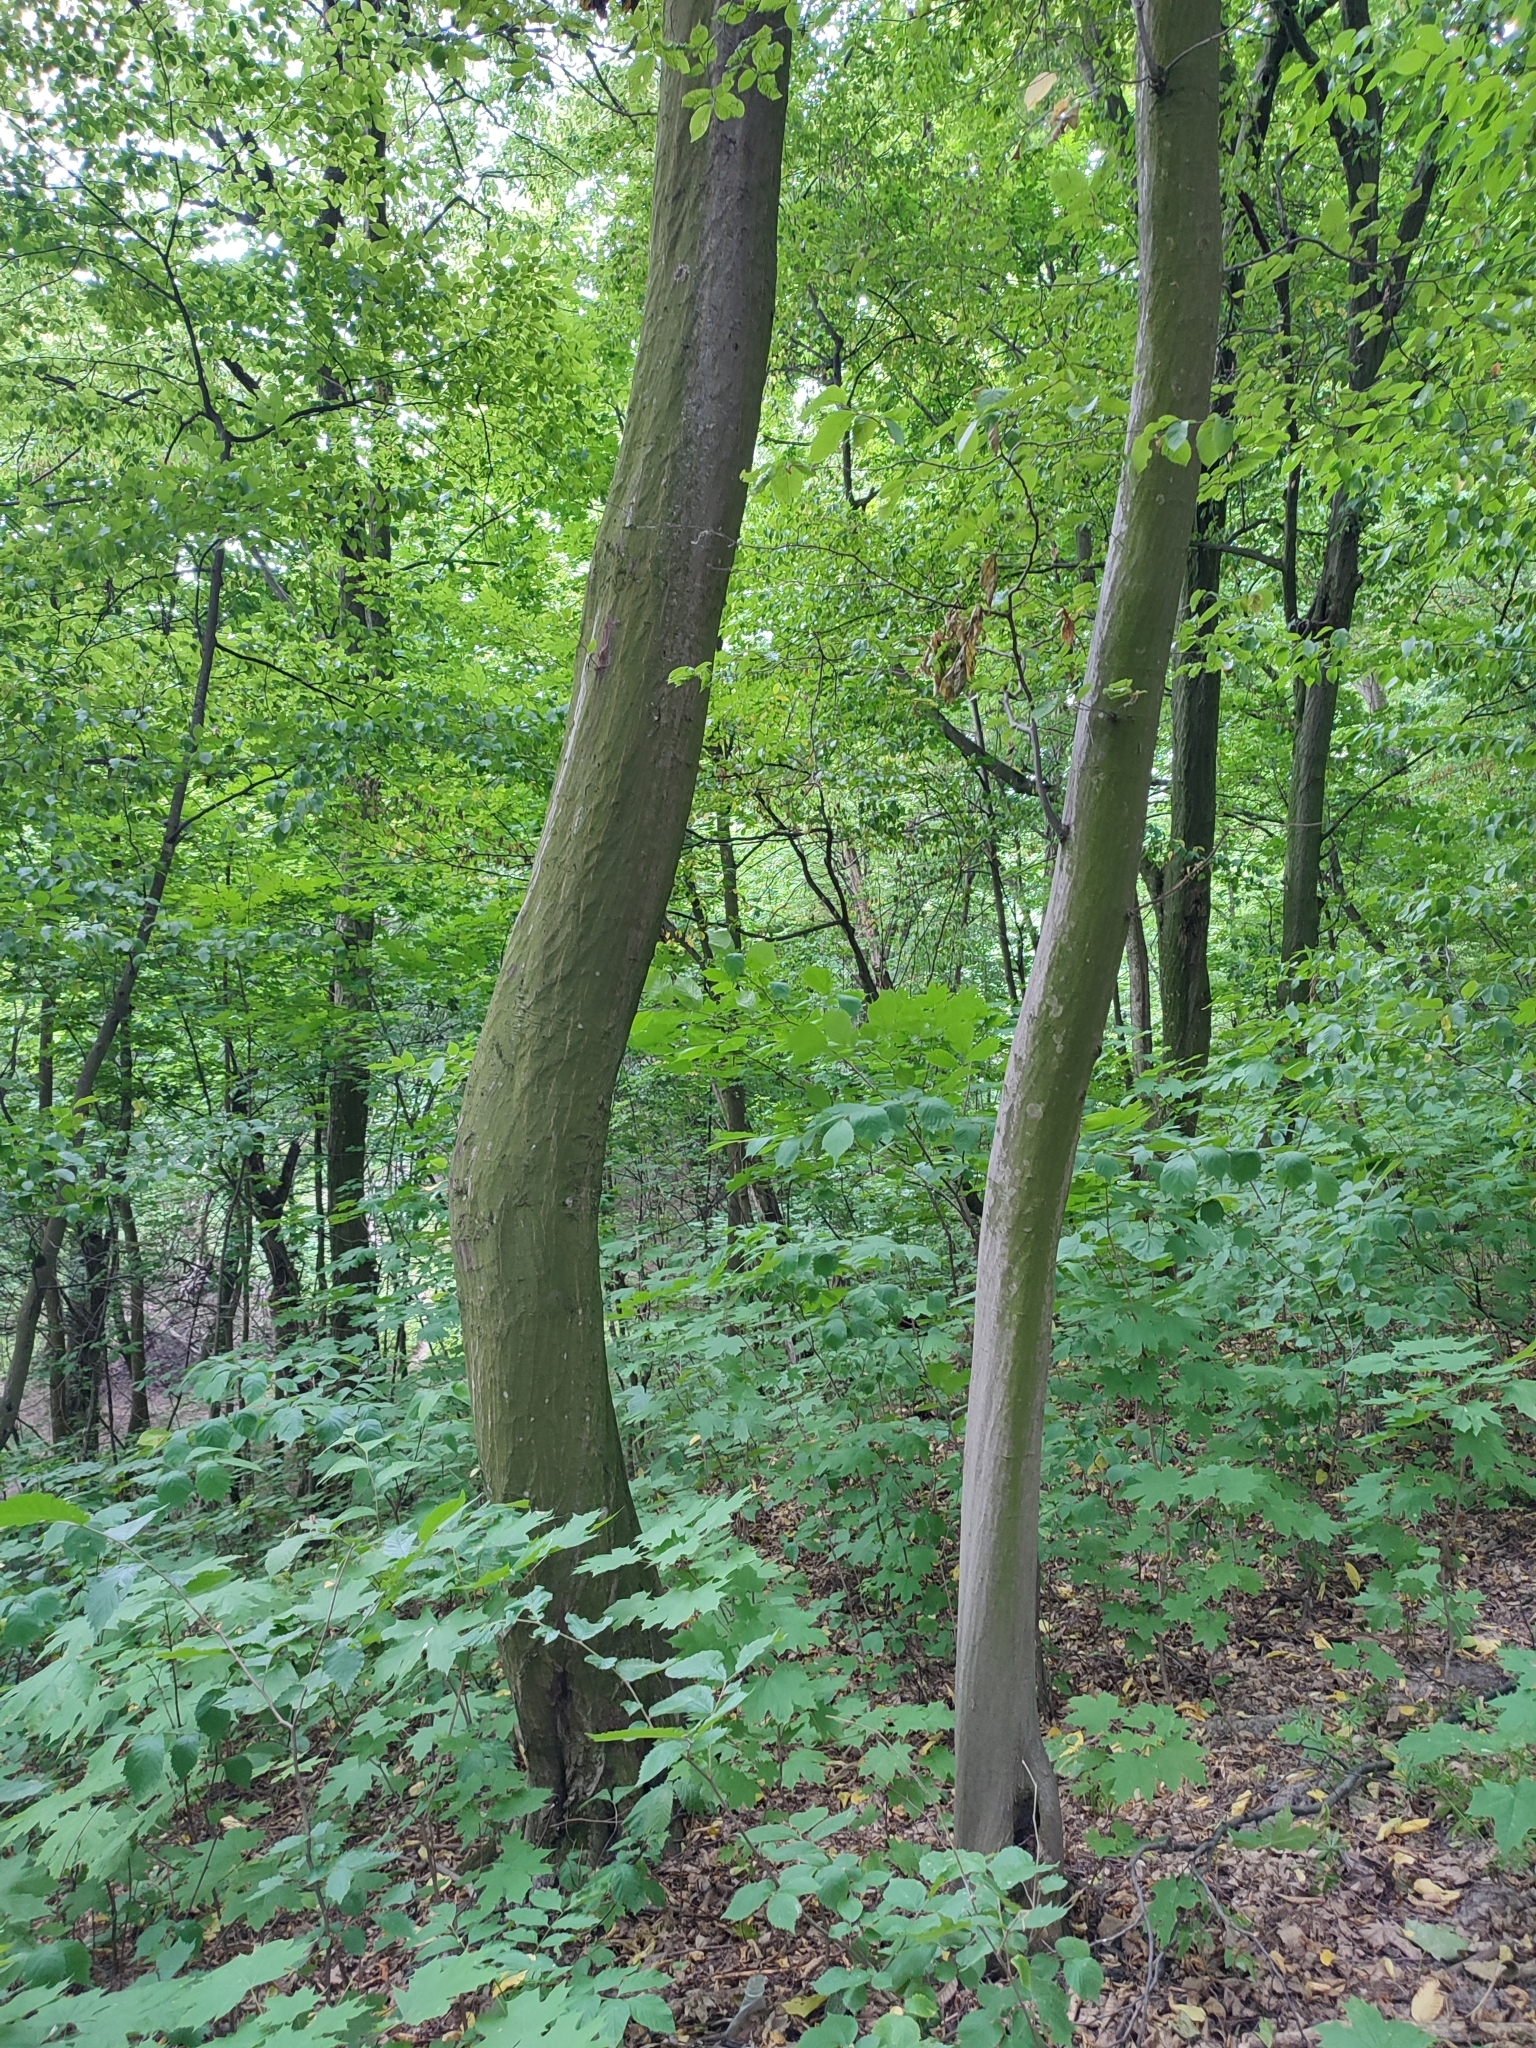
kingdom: Plantae
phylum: Tracheophyta
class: Magnoliopsida
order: Fagales
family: Betulaceae
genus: Carpinus
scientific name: Carpinus betulus
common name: Hornbeam
